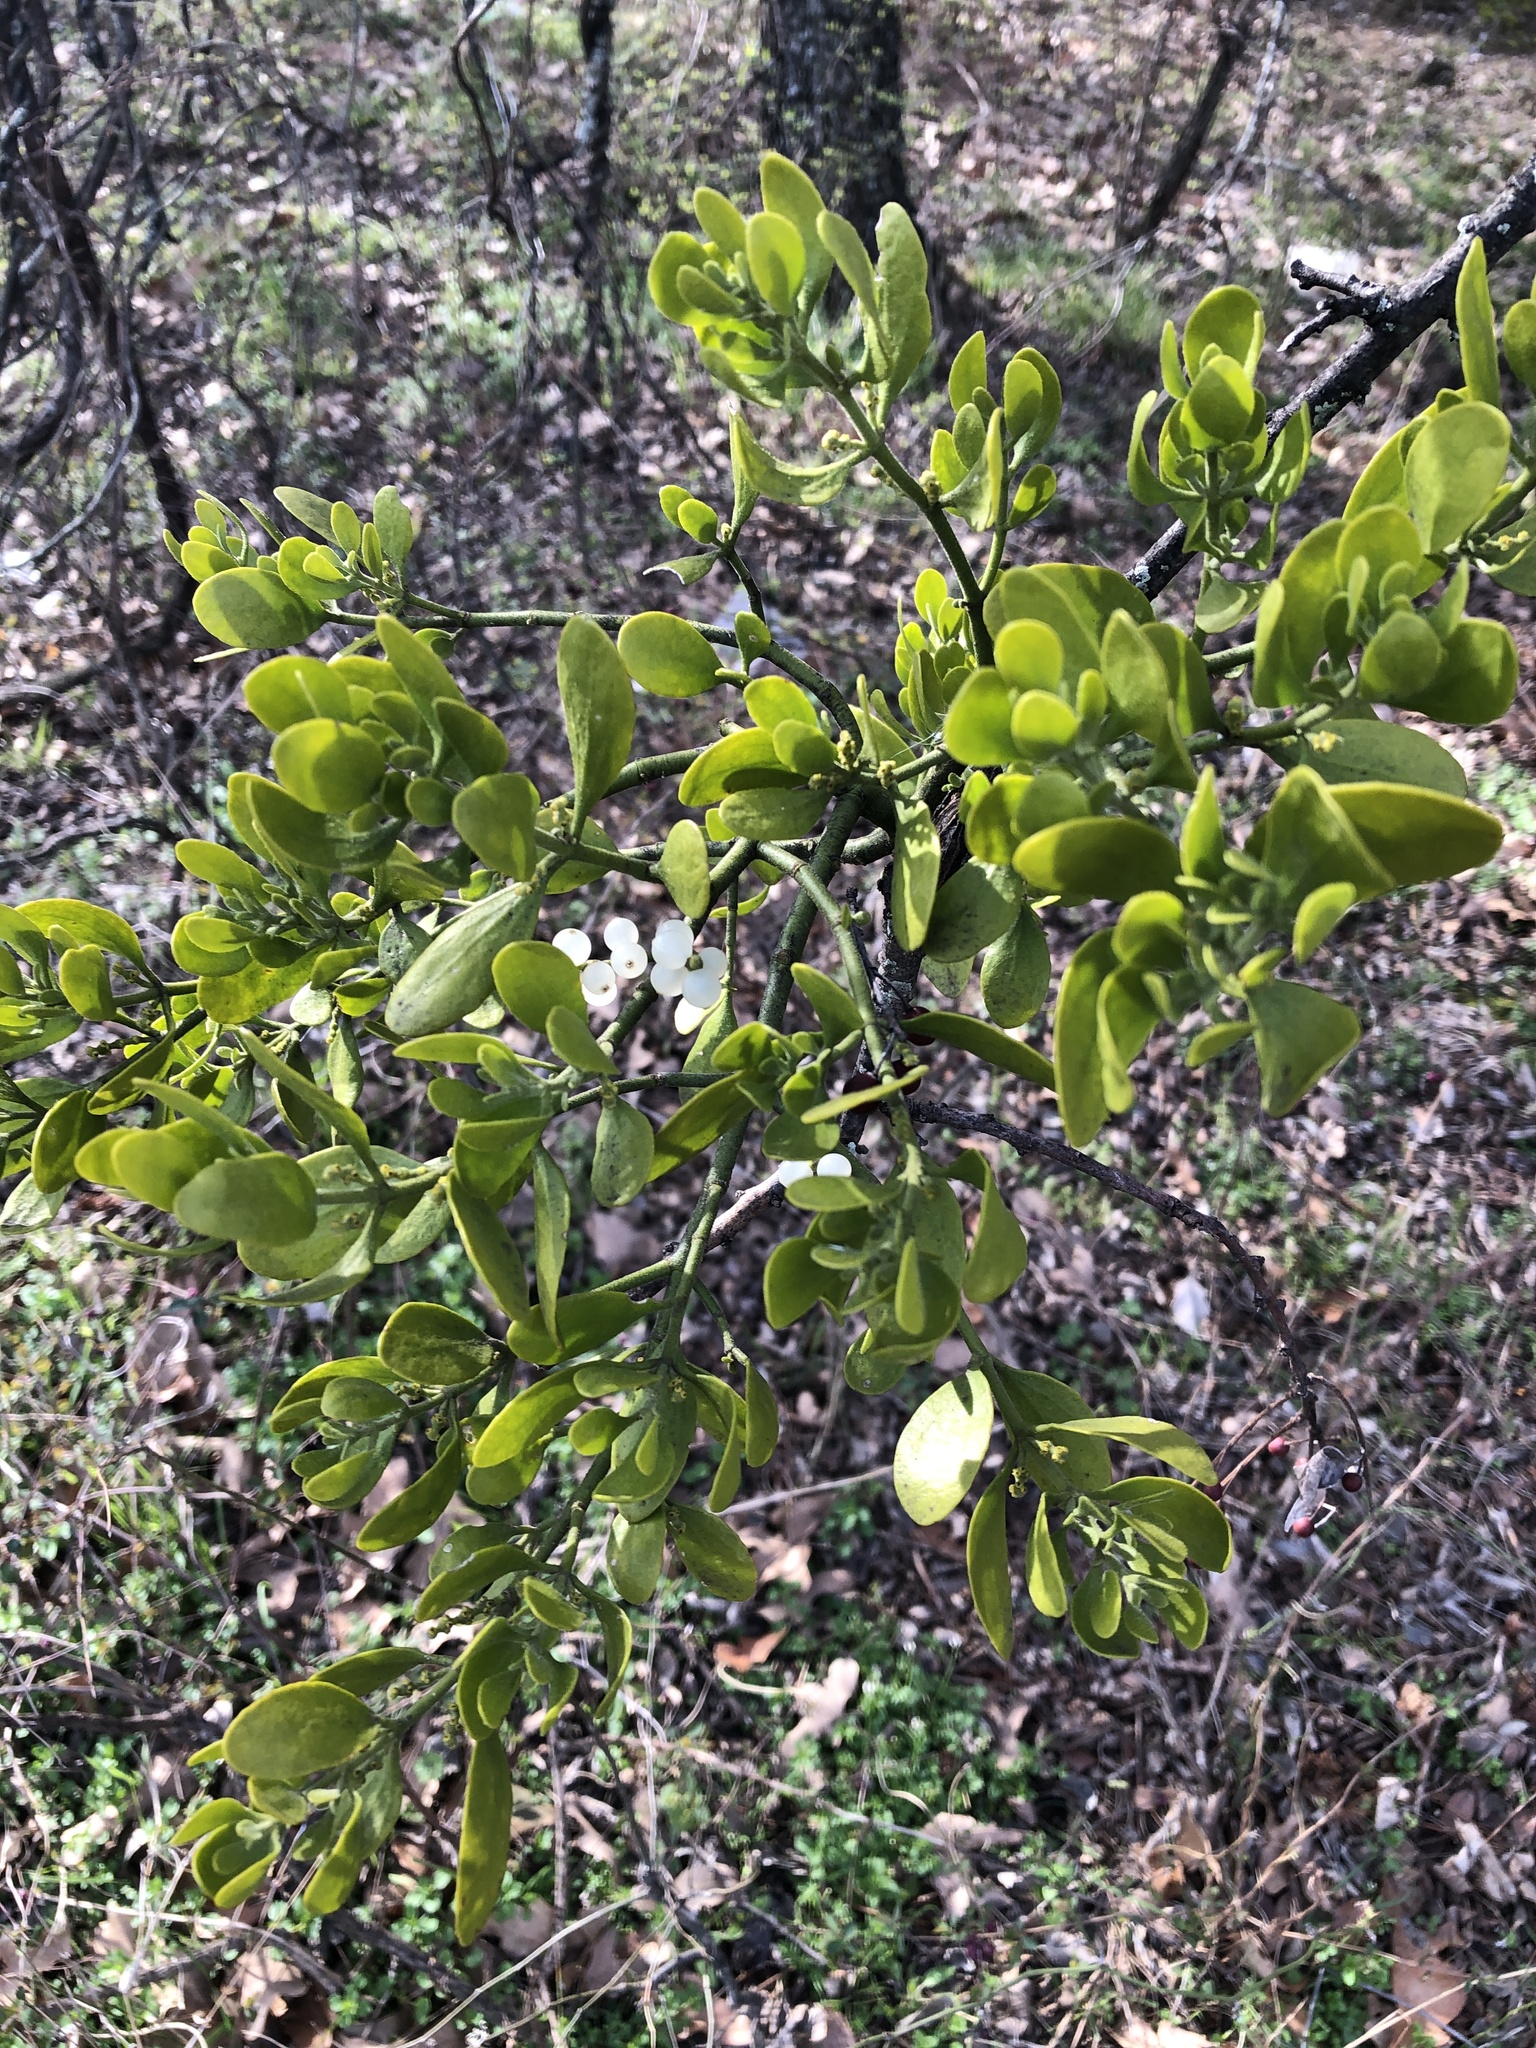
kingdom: Plantae
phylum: Tracheophyta
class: Magnoliopsida
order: Santalales
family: Viscaceae
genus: Phoradendron
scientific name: Phoradendron leucarpum
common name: Pacific mistletoe
